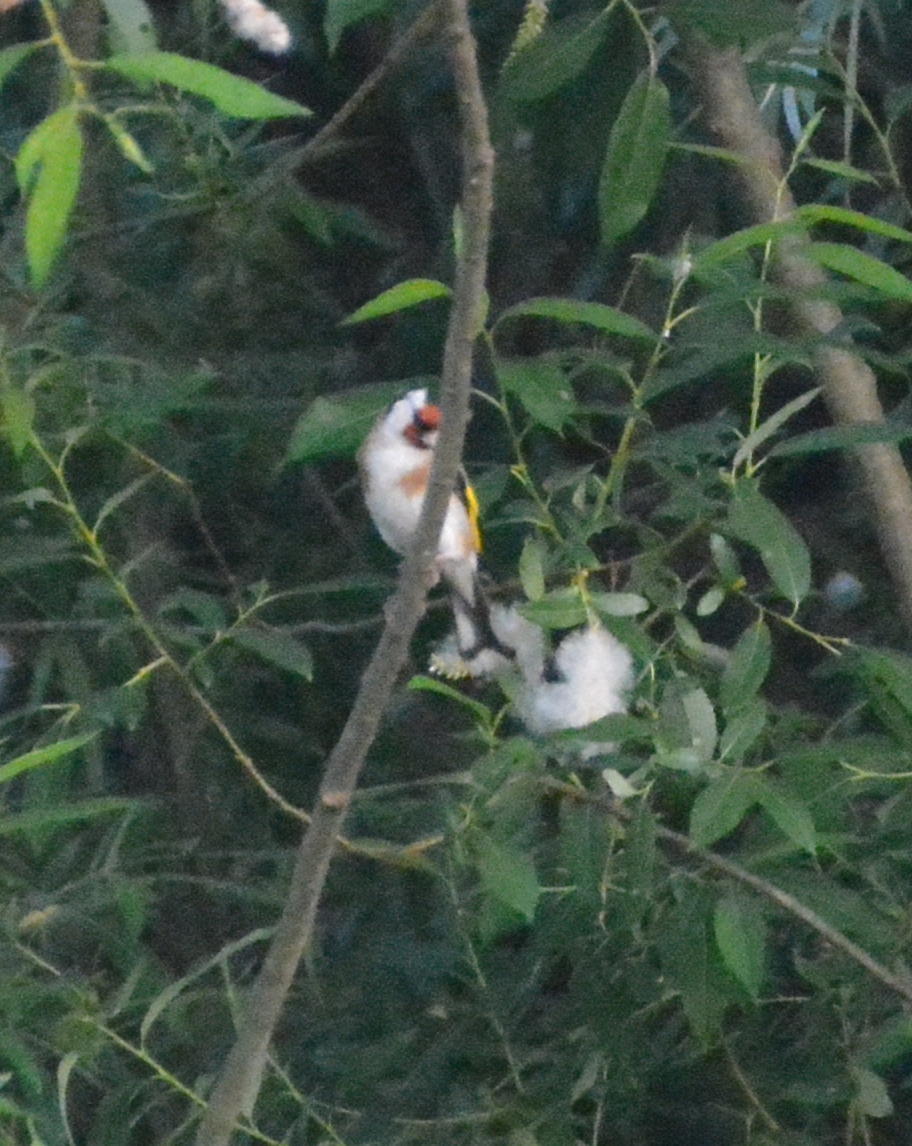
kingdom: Animalia
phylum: Chordata
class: Aves
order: Passeriformes
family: Fringillidae
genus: Carduelis
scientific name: Carduelis carduelis
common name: European goldfinch
